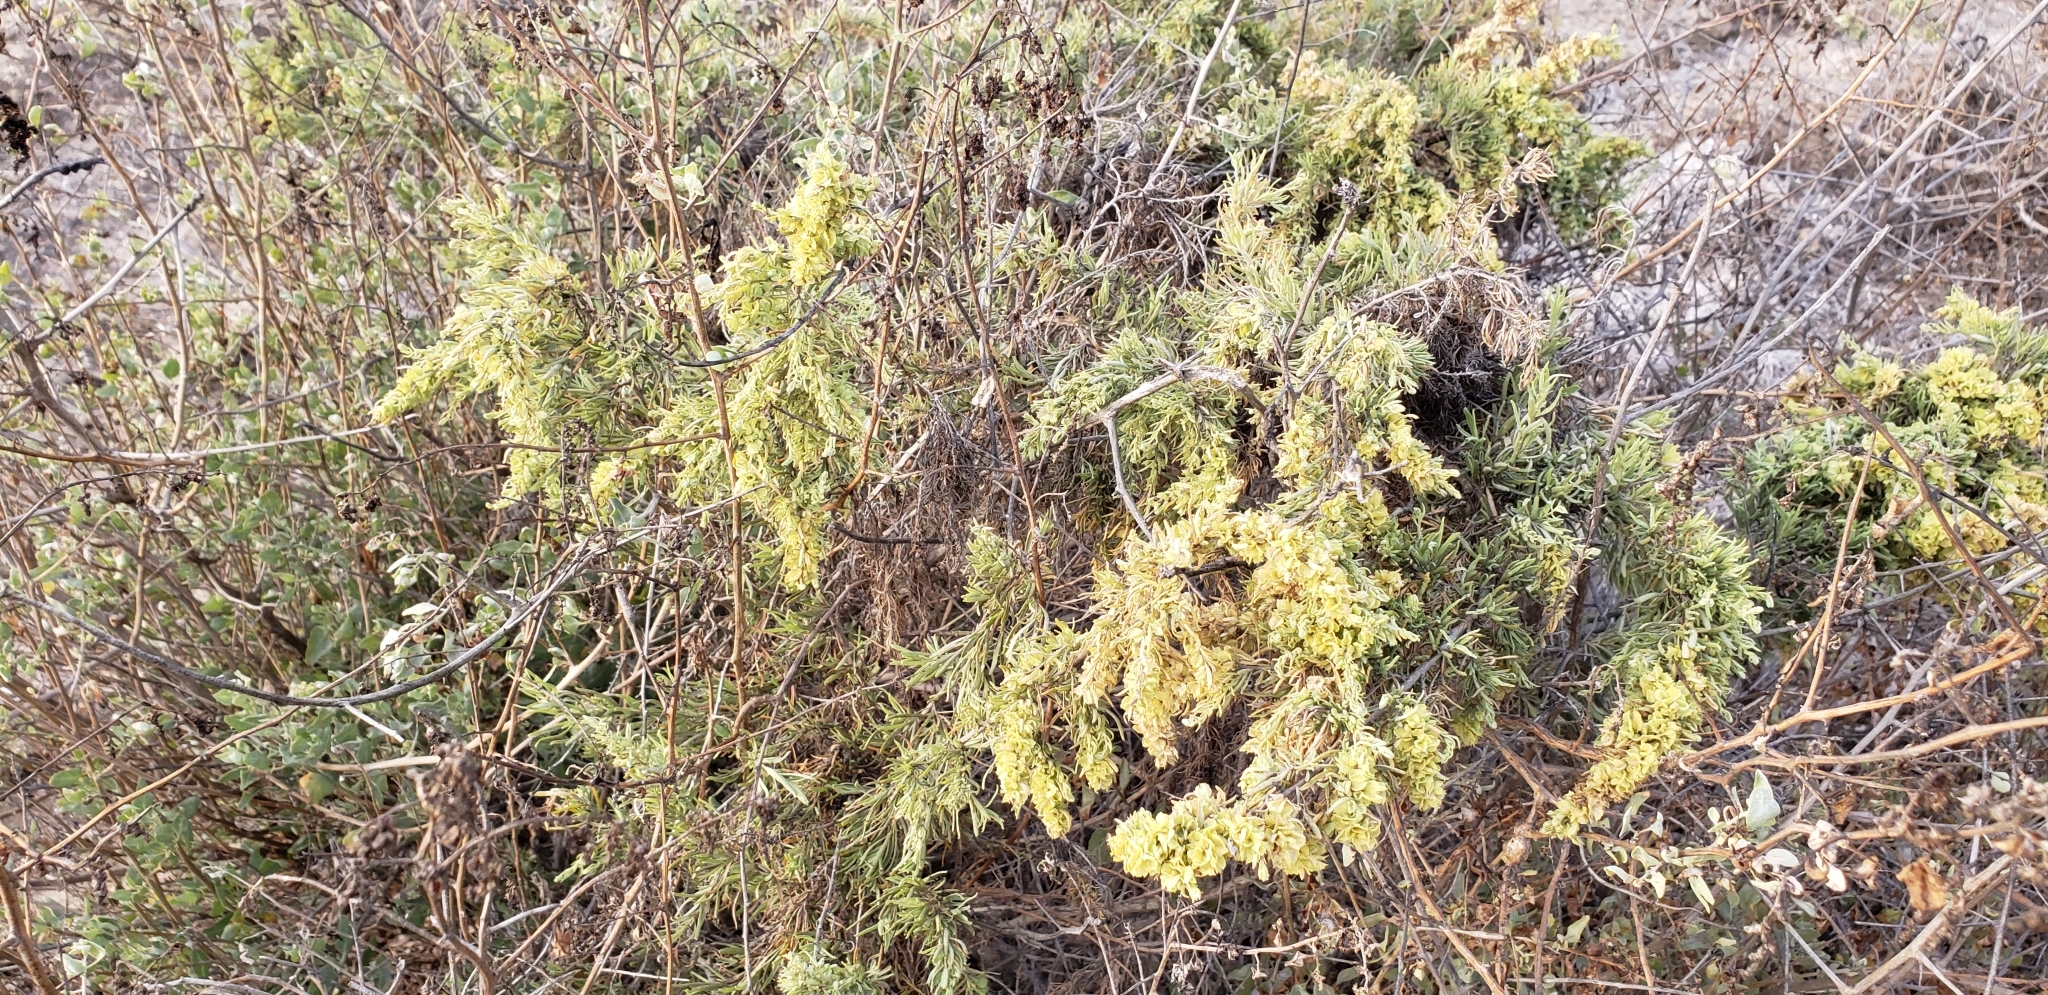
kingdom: Plantae
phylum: Tracheophyta
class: Magnoliopsida
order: Caryophyllales
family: Amaranthaceae
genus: Atriplex
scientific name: Atriplex canescens
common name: Four-wing saltbush
